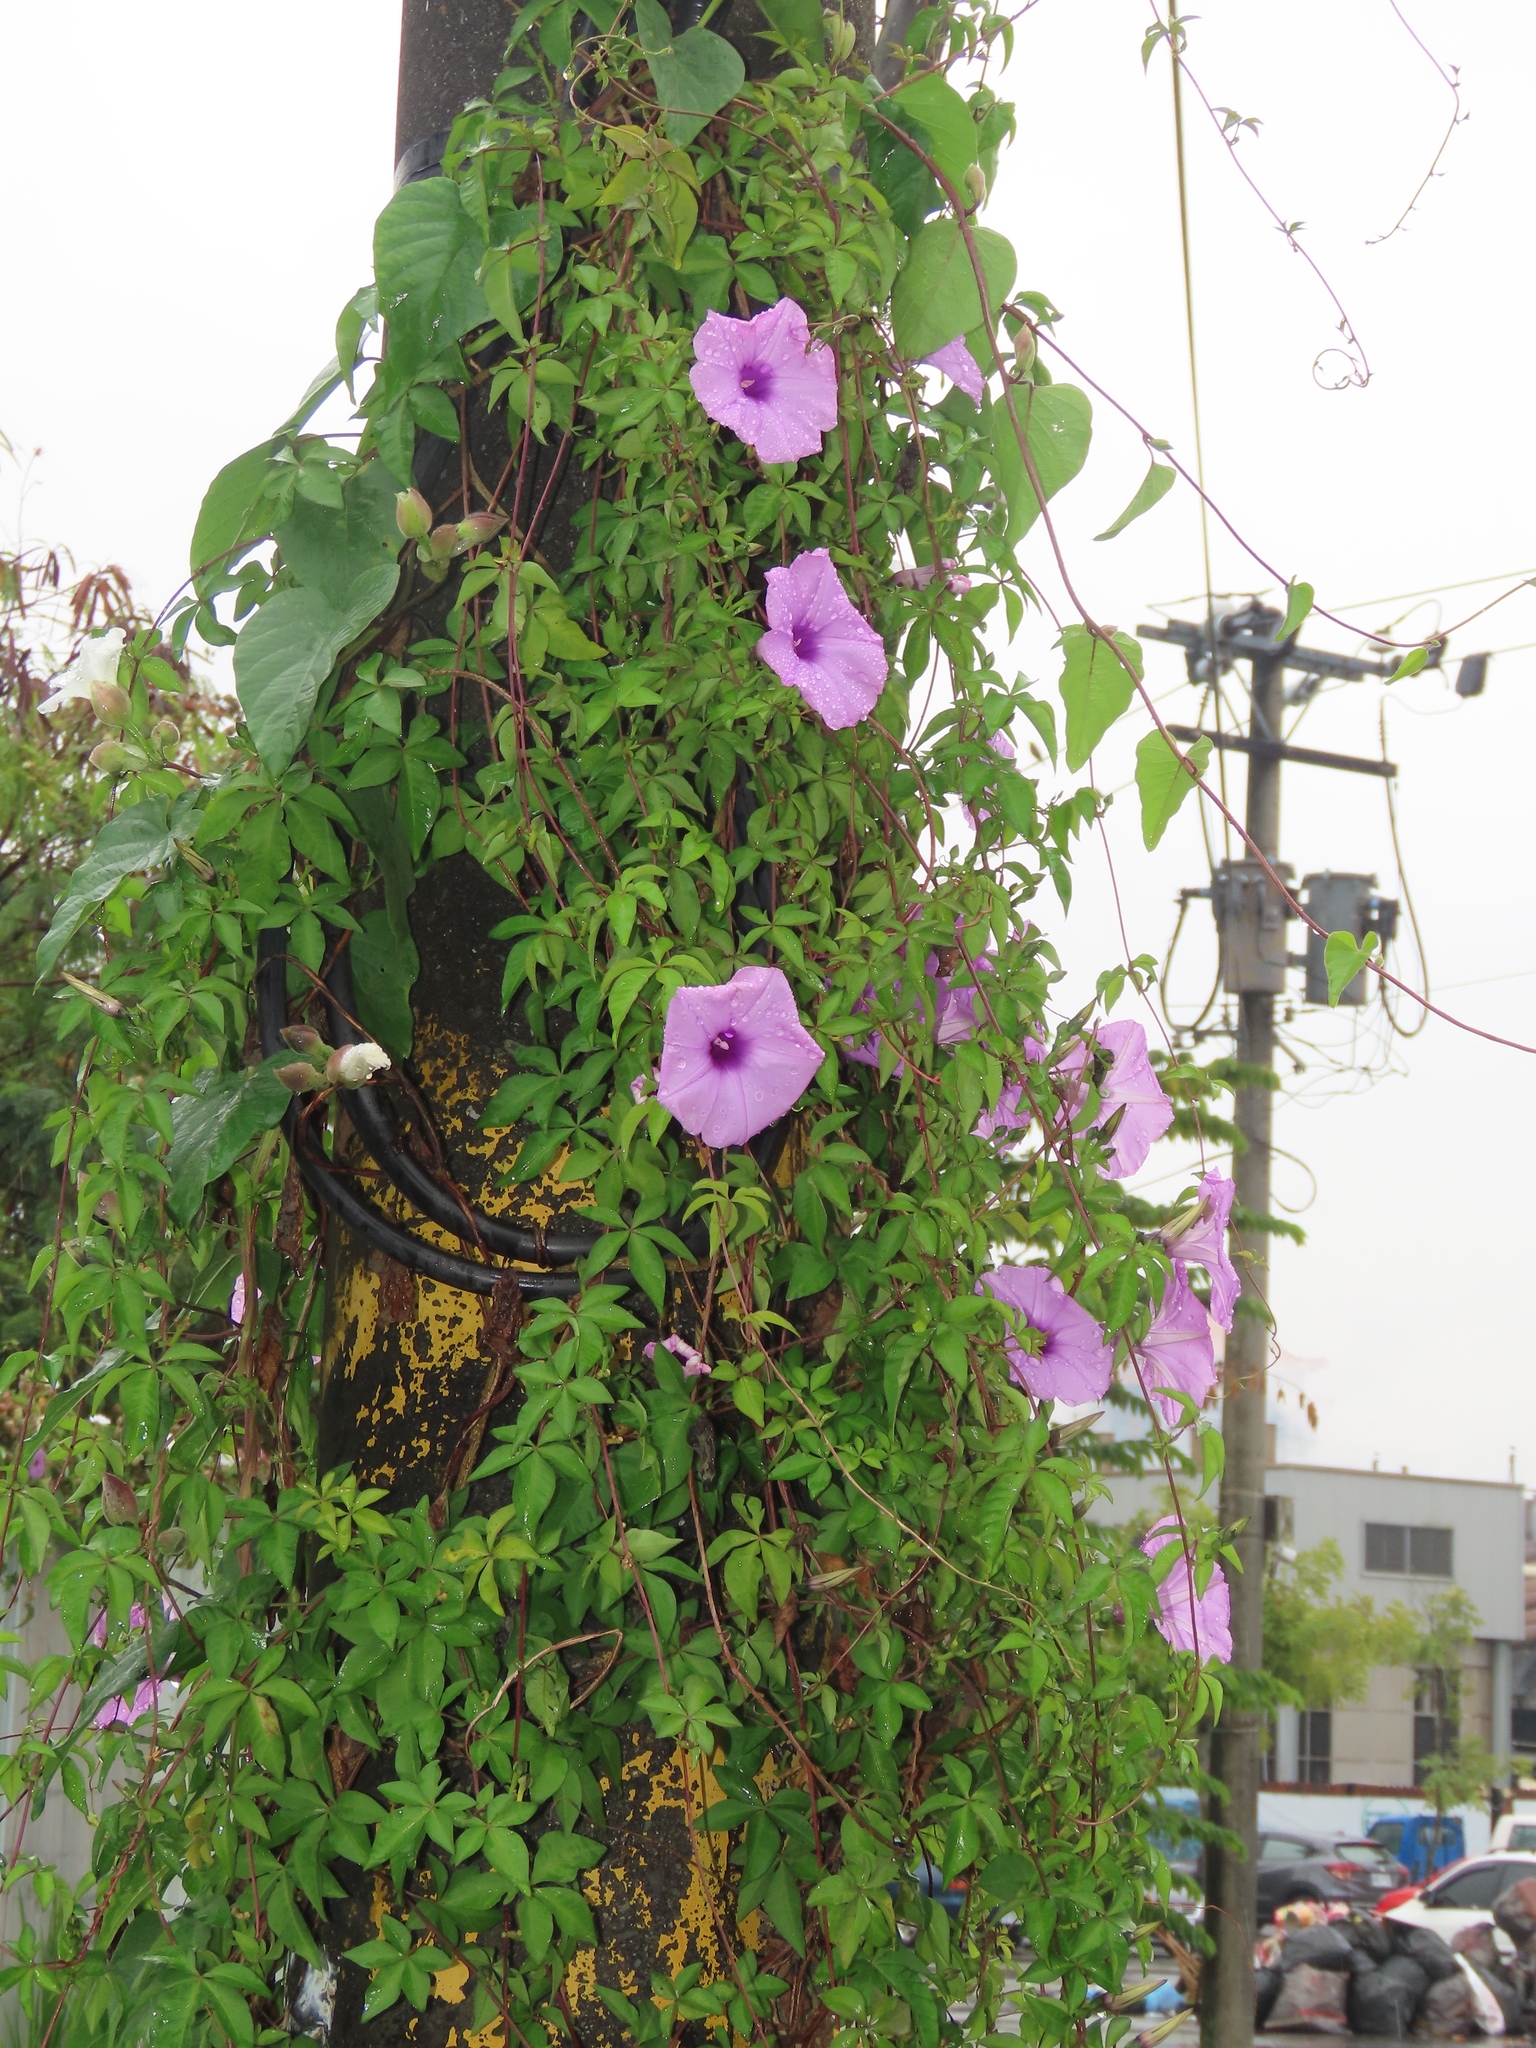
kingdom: Plantae
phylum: Tracheophyta
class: Magnoliopsida
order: Solanales
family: Convolvulaceae
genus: Ipomoea
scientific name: Ipomoea cairica
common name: Mile a minute vine
